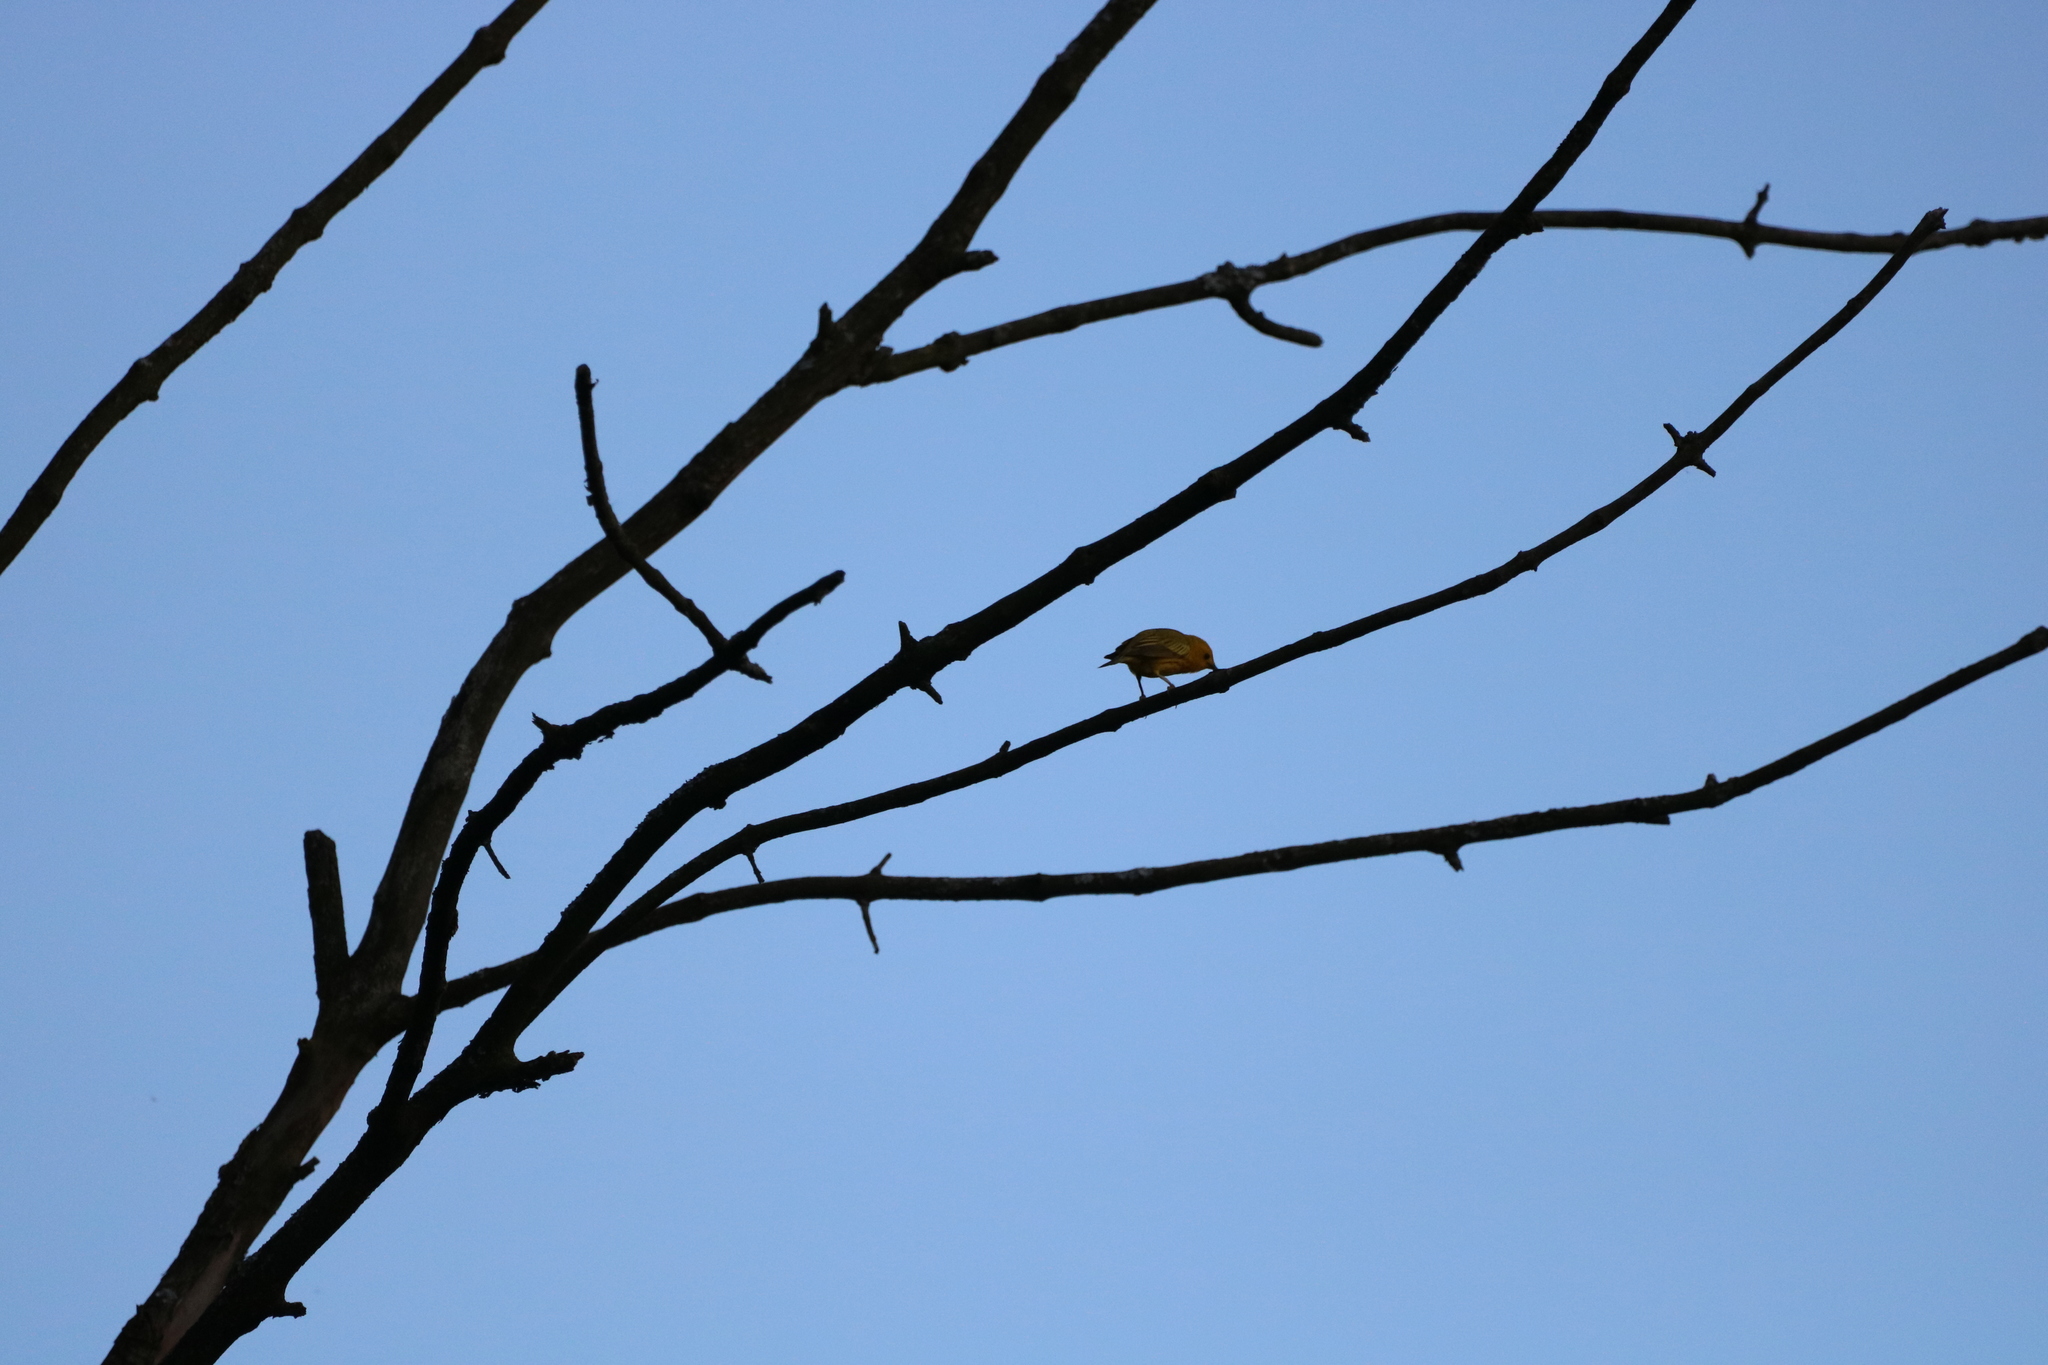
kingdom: Animalia
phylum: Chordata
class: Aves
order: Passeriformes
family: Parulidae
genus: Setophaga
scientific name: Setophaga petechia
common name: Yellow warbler
